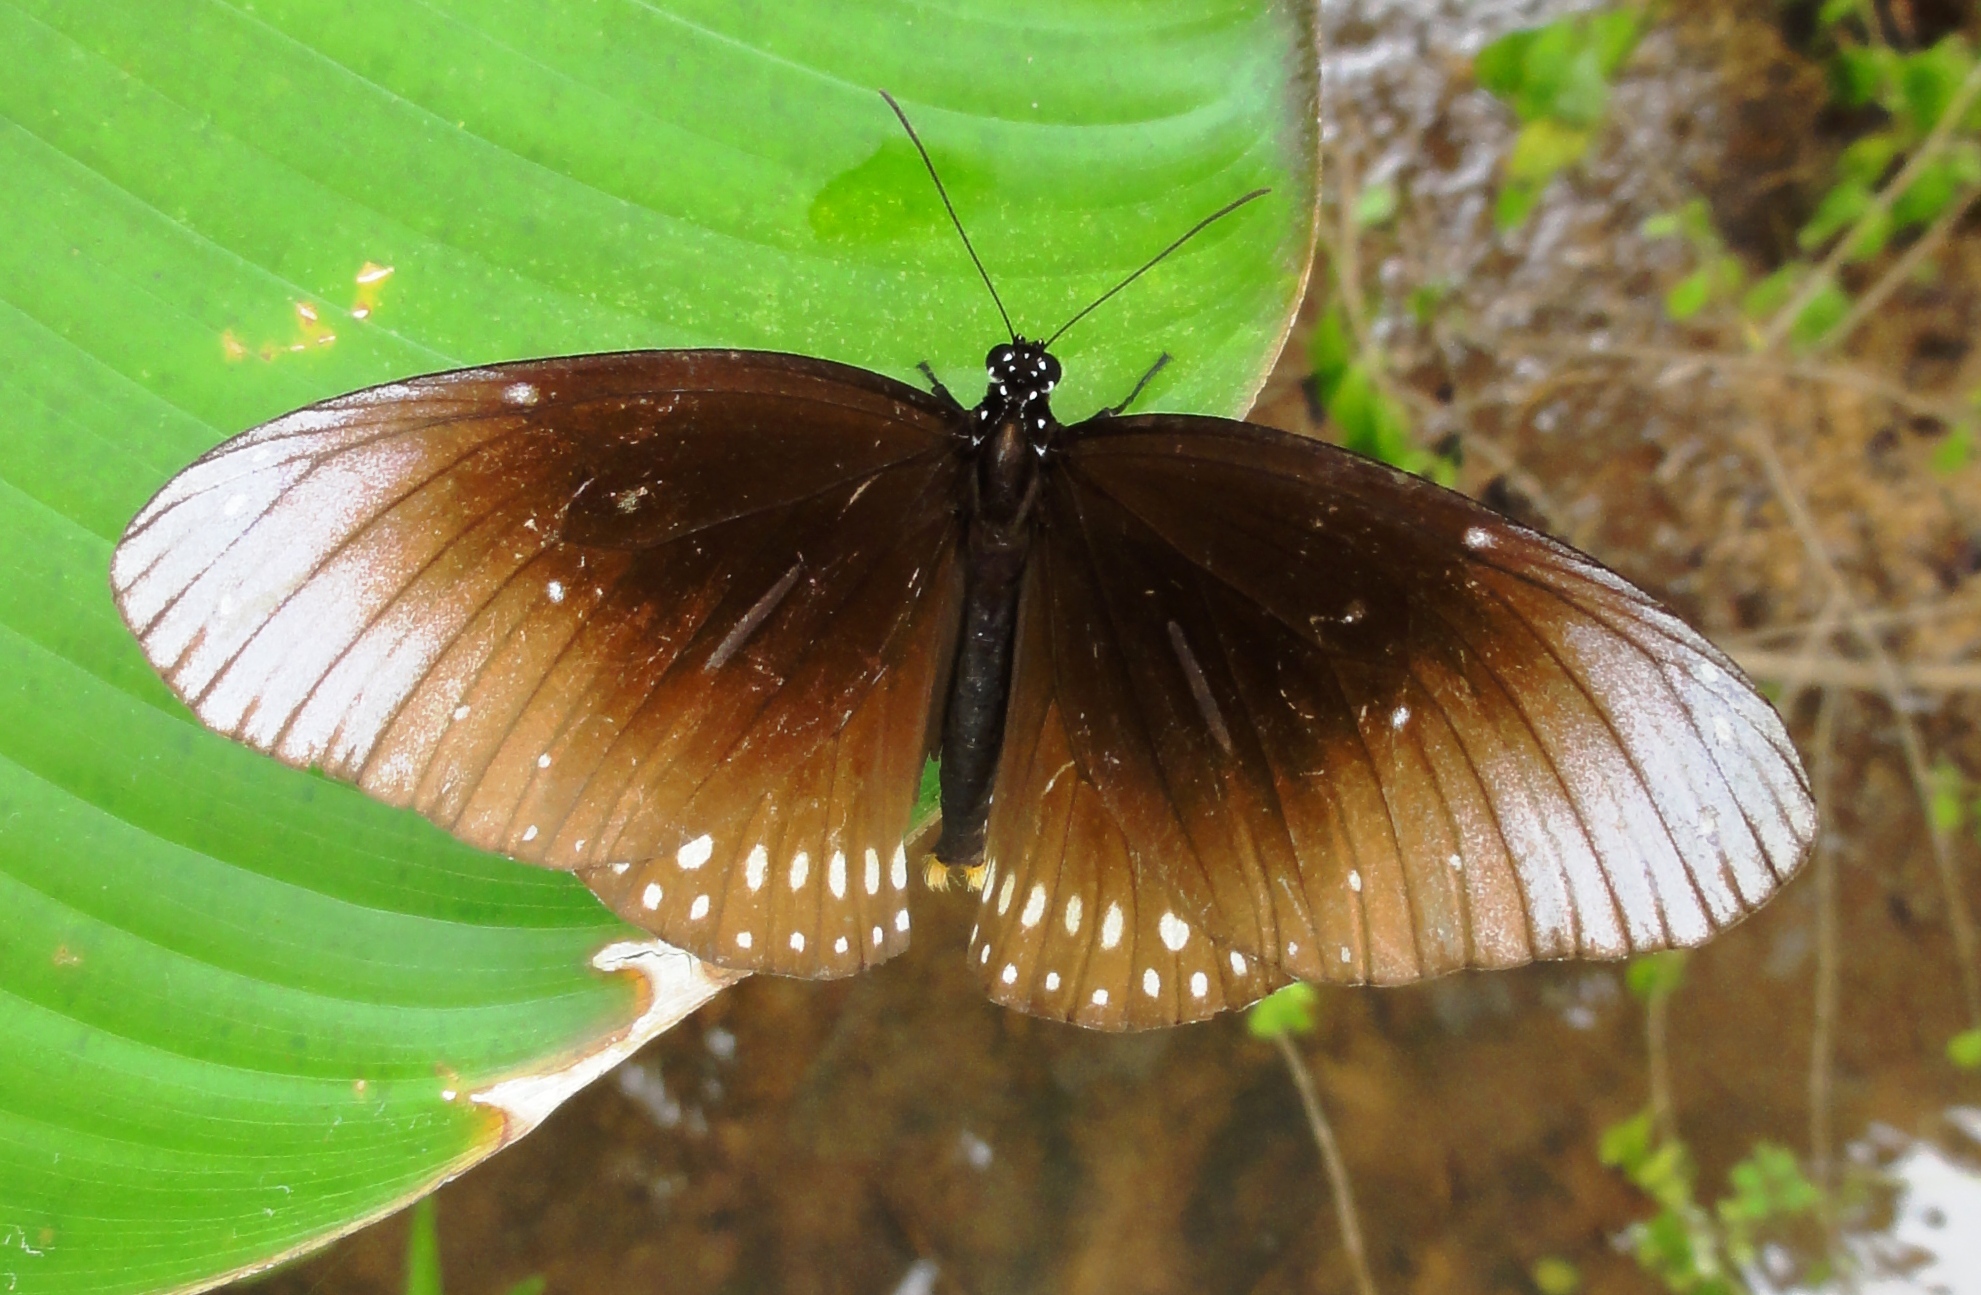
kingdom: Animalia
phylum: Arthropoda
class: Insecta
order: Lepidoptera
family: Nymphalidae
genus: Euploea
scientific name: Euploea core
